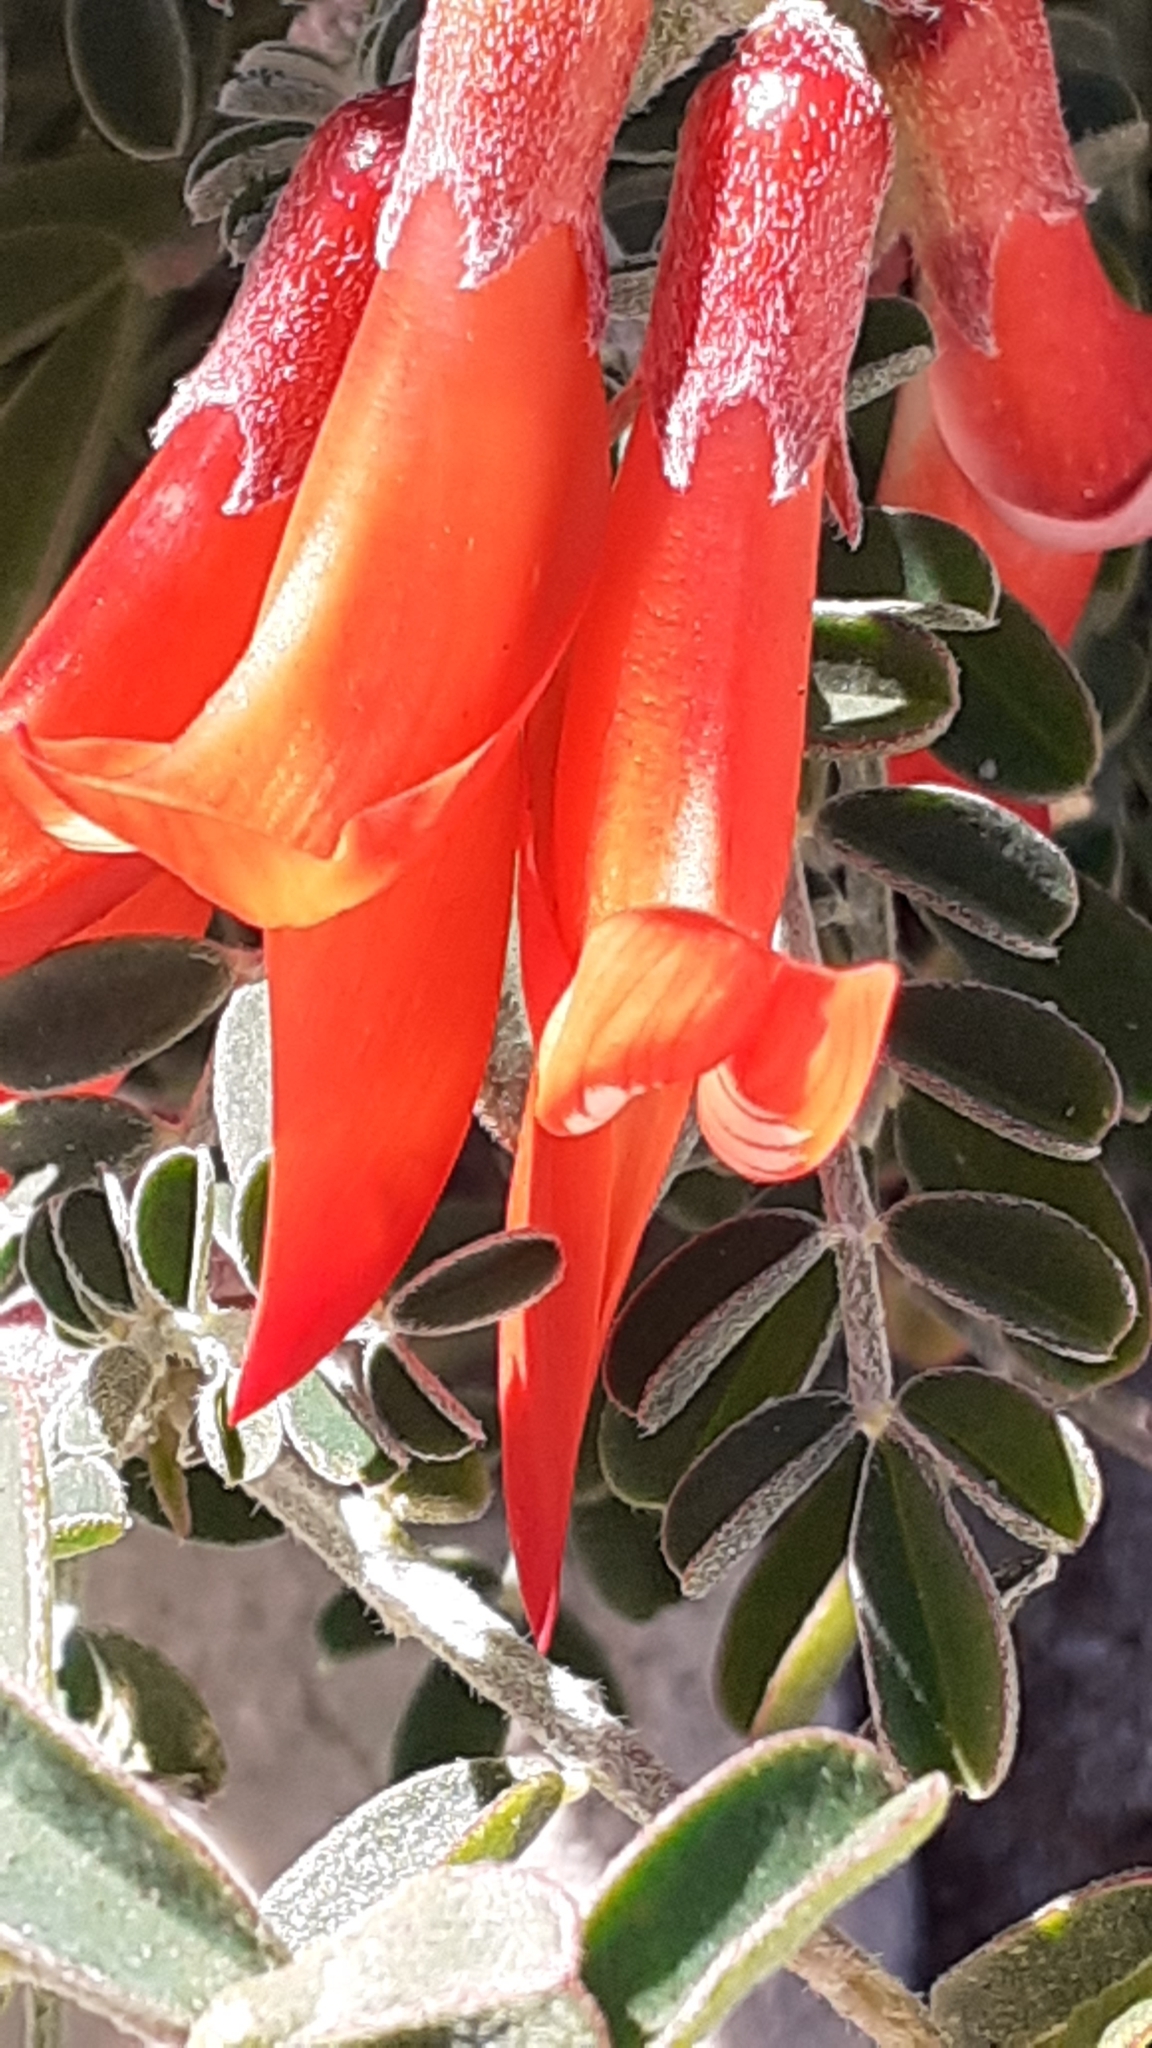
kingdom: Plantae
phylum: Tracheophyta
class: Magnoliopsida
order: Fabales
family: Fabaceae
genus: Lessertia
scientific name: Lessertia frutescens
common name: Balloon-pea
